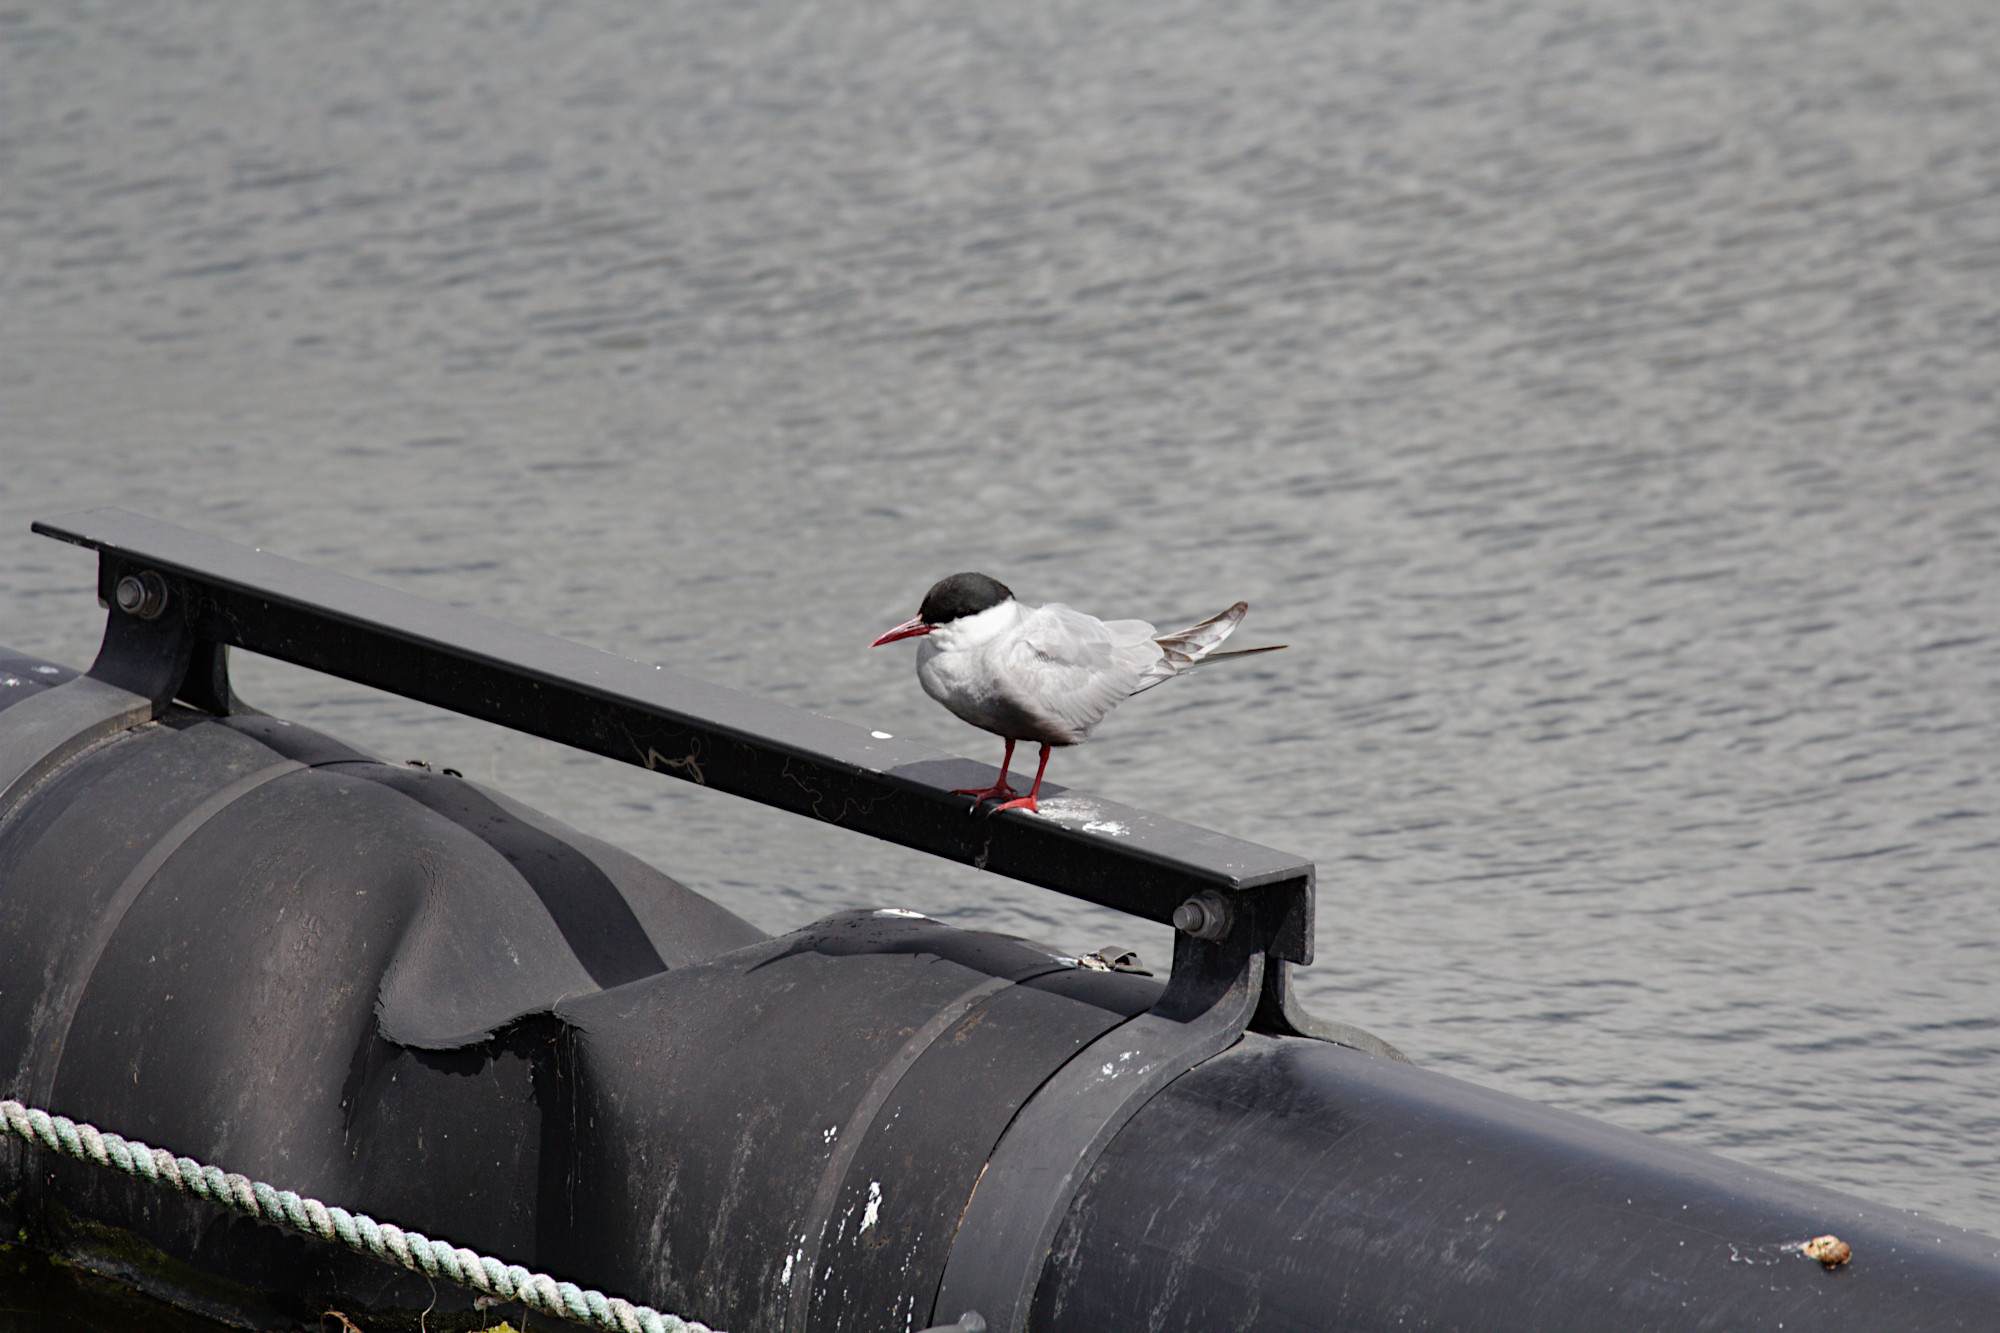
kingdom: Animalia
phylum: Chordata
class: Aves
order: Charadriiformes
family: Laridae
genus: Chlidonias
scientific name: Chlidonias hybrida
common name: Whiskered tern
